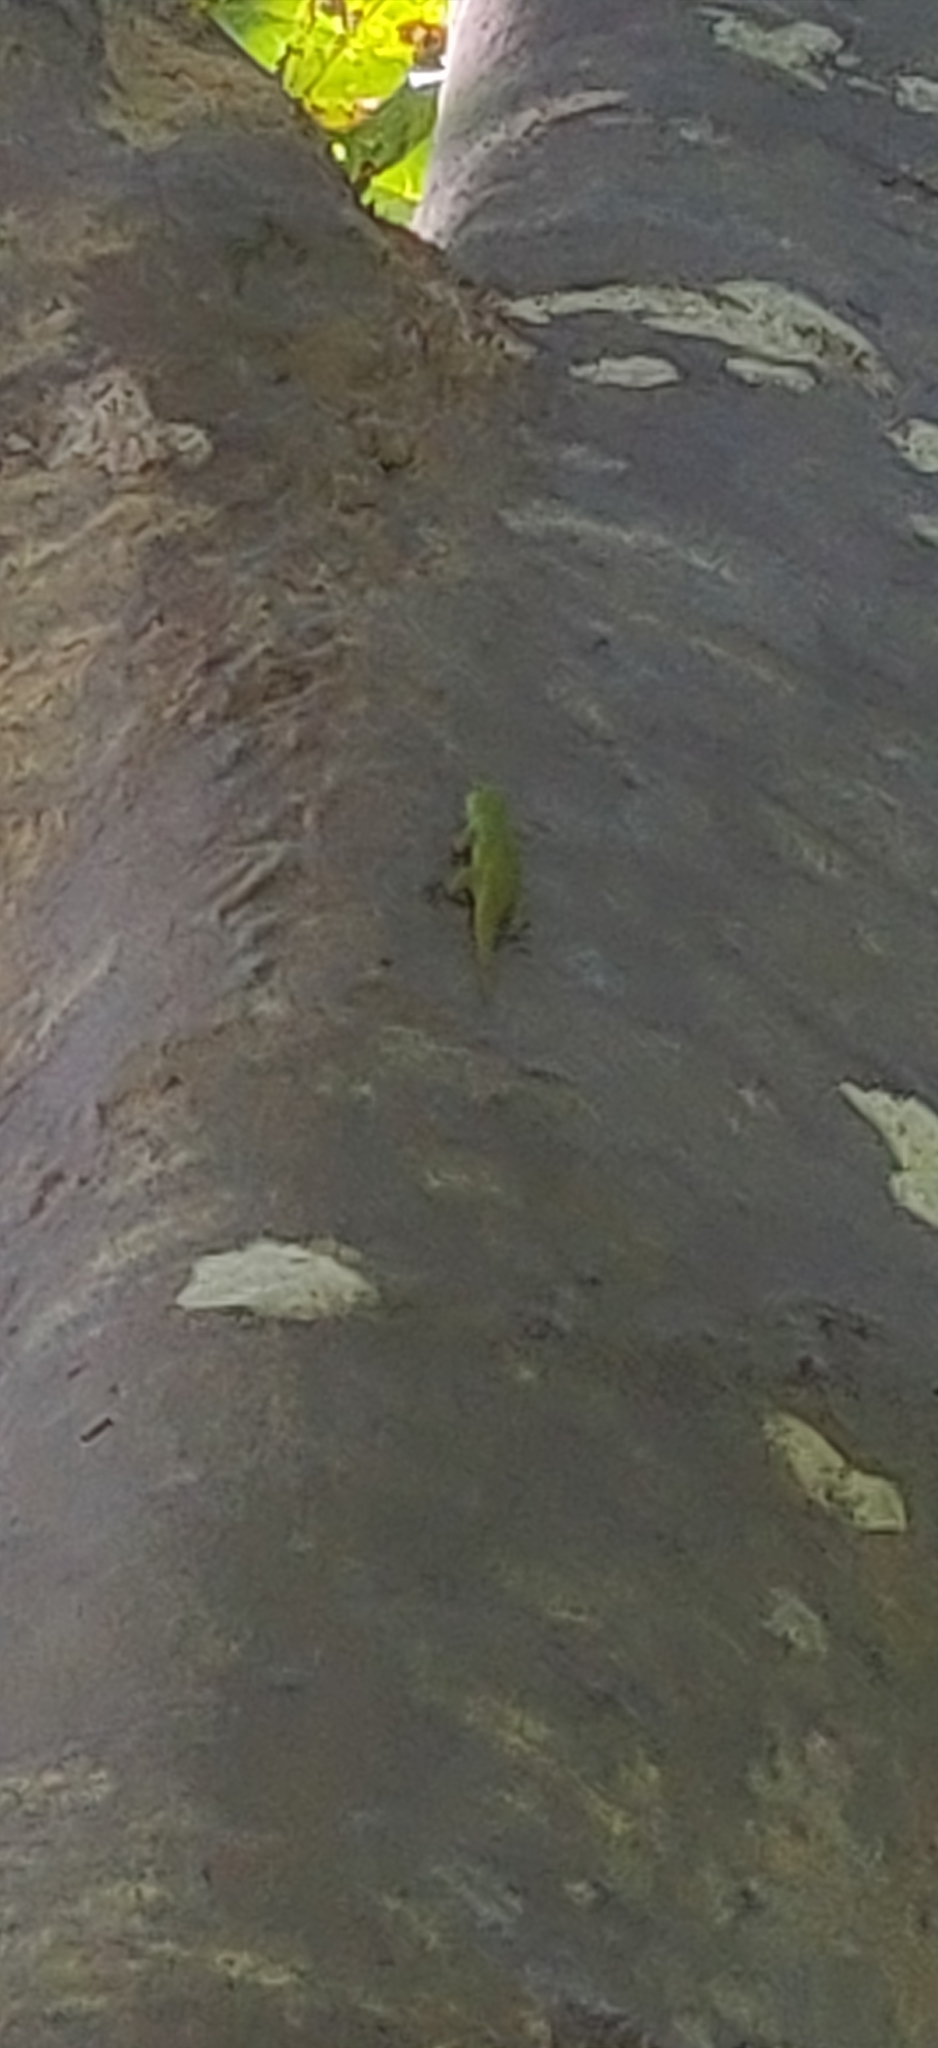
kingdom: Animalia
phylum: Chordata
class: Squamata
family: Gekkonidae
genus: Phelsuma
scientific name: Phelsuma andamanensis
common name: Andaman day gecko
